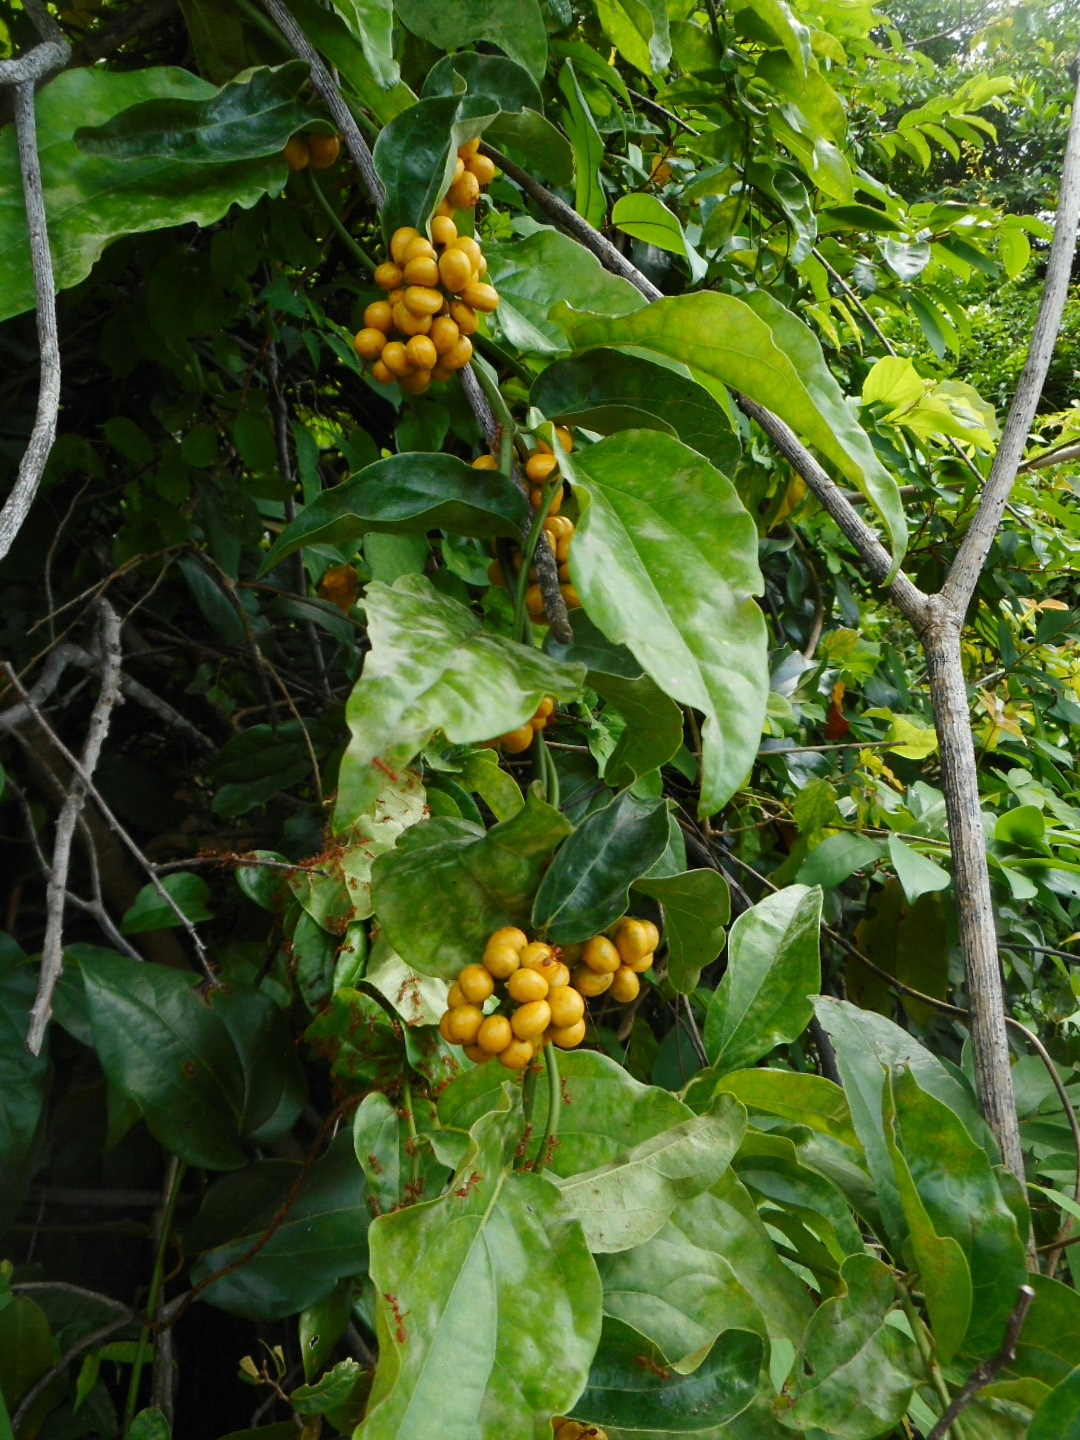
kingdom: Plantae
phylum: Tracheophyta
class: Magnoliopsida
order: Ranunculales
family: Menispermaceae
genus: Tiliacora
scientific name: Tiliacora triandra
